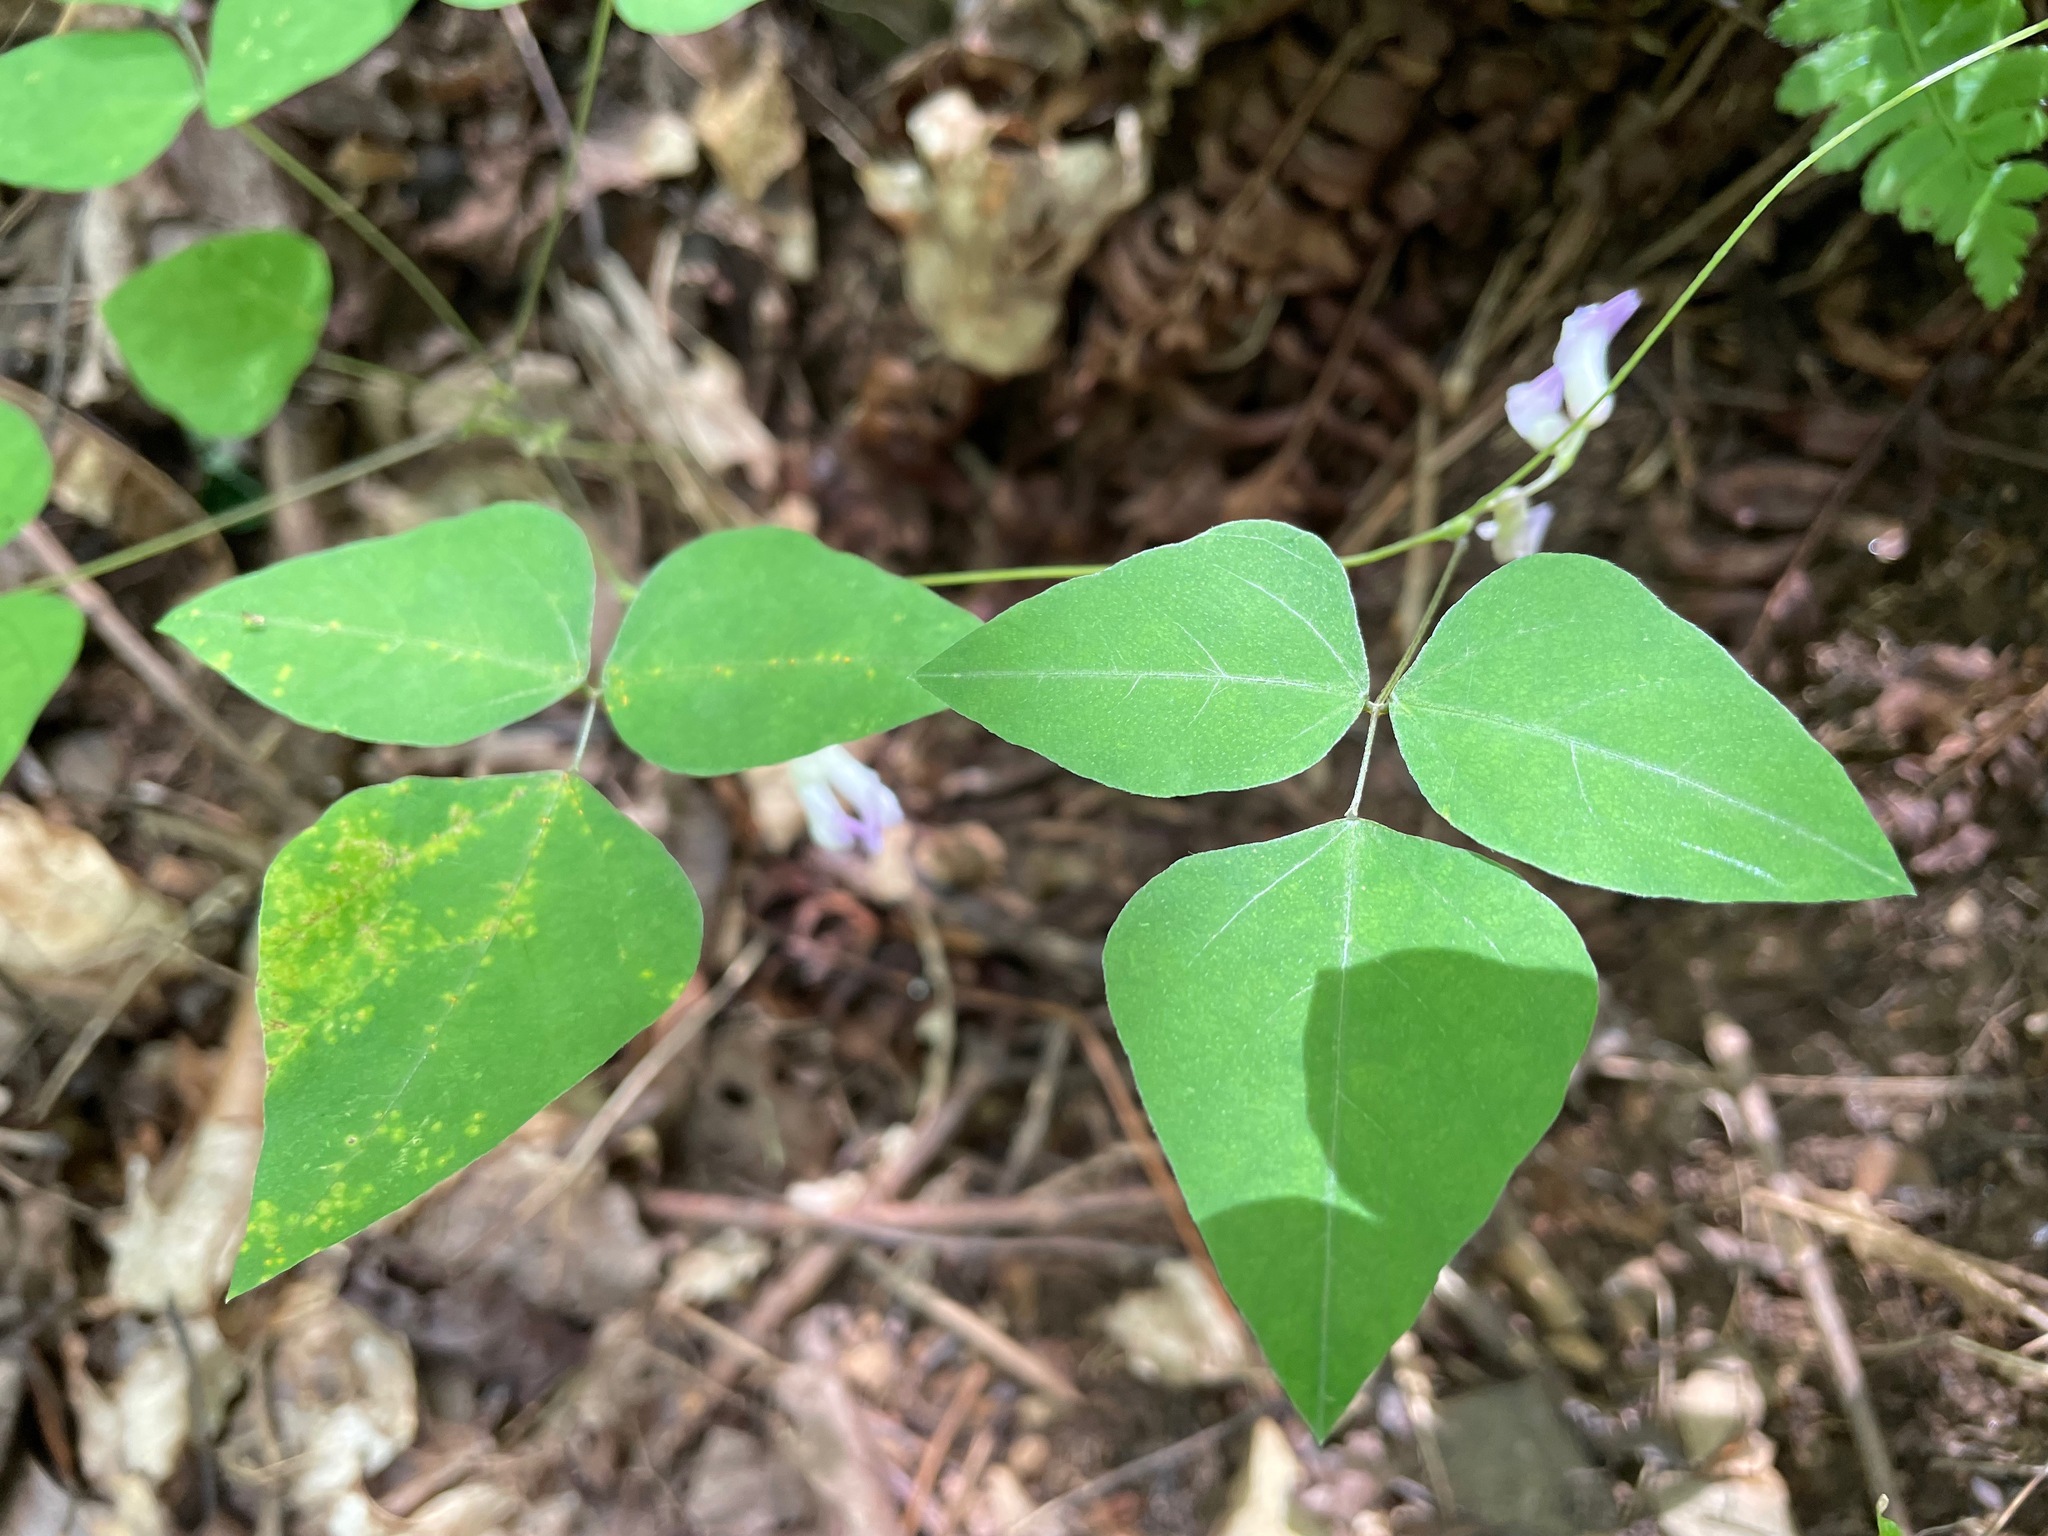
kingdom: Plantae
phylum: Tracheophyta
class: Magnoliopsida
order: Fabales
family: Fabaceae
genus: Amphicarpaea
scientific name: Amphicarpaea bracteata
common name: American hog peanut
